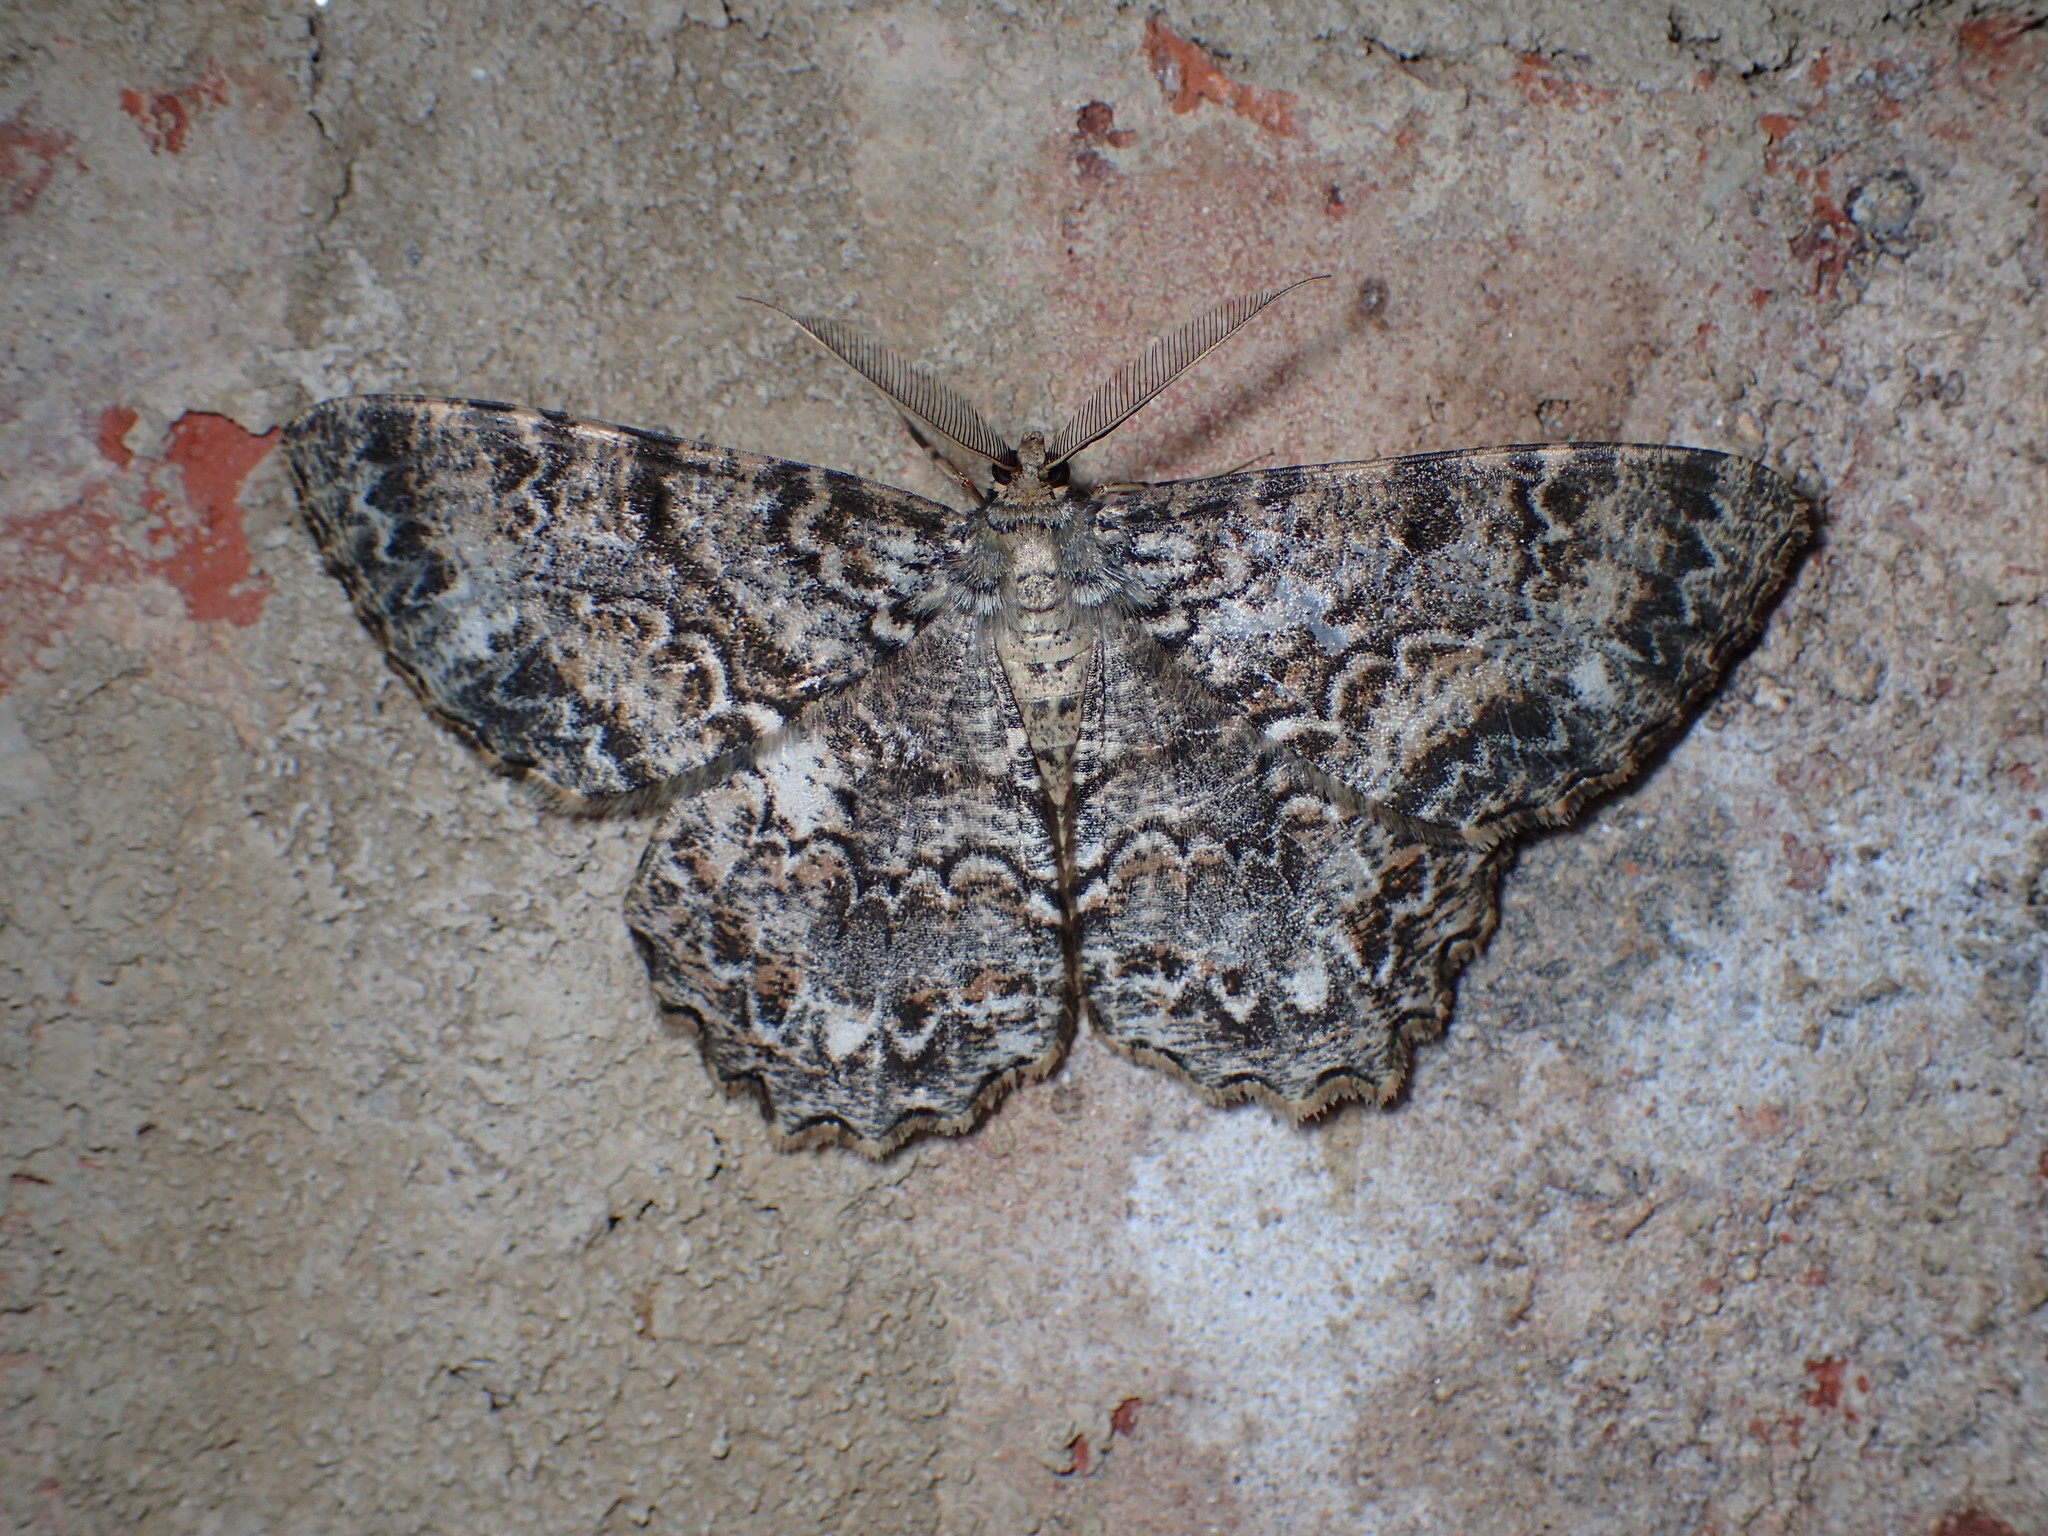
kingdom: Animalia
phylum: Arthropoda
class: Insecta
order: Lepidoptera
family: Geometridae
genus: Epimecis
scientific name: Epimecis hortaria
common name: Tulip-tree beauty
